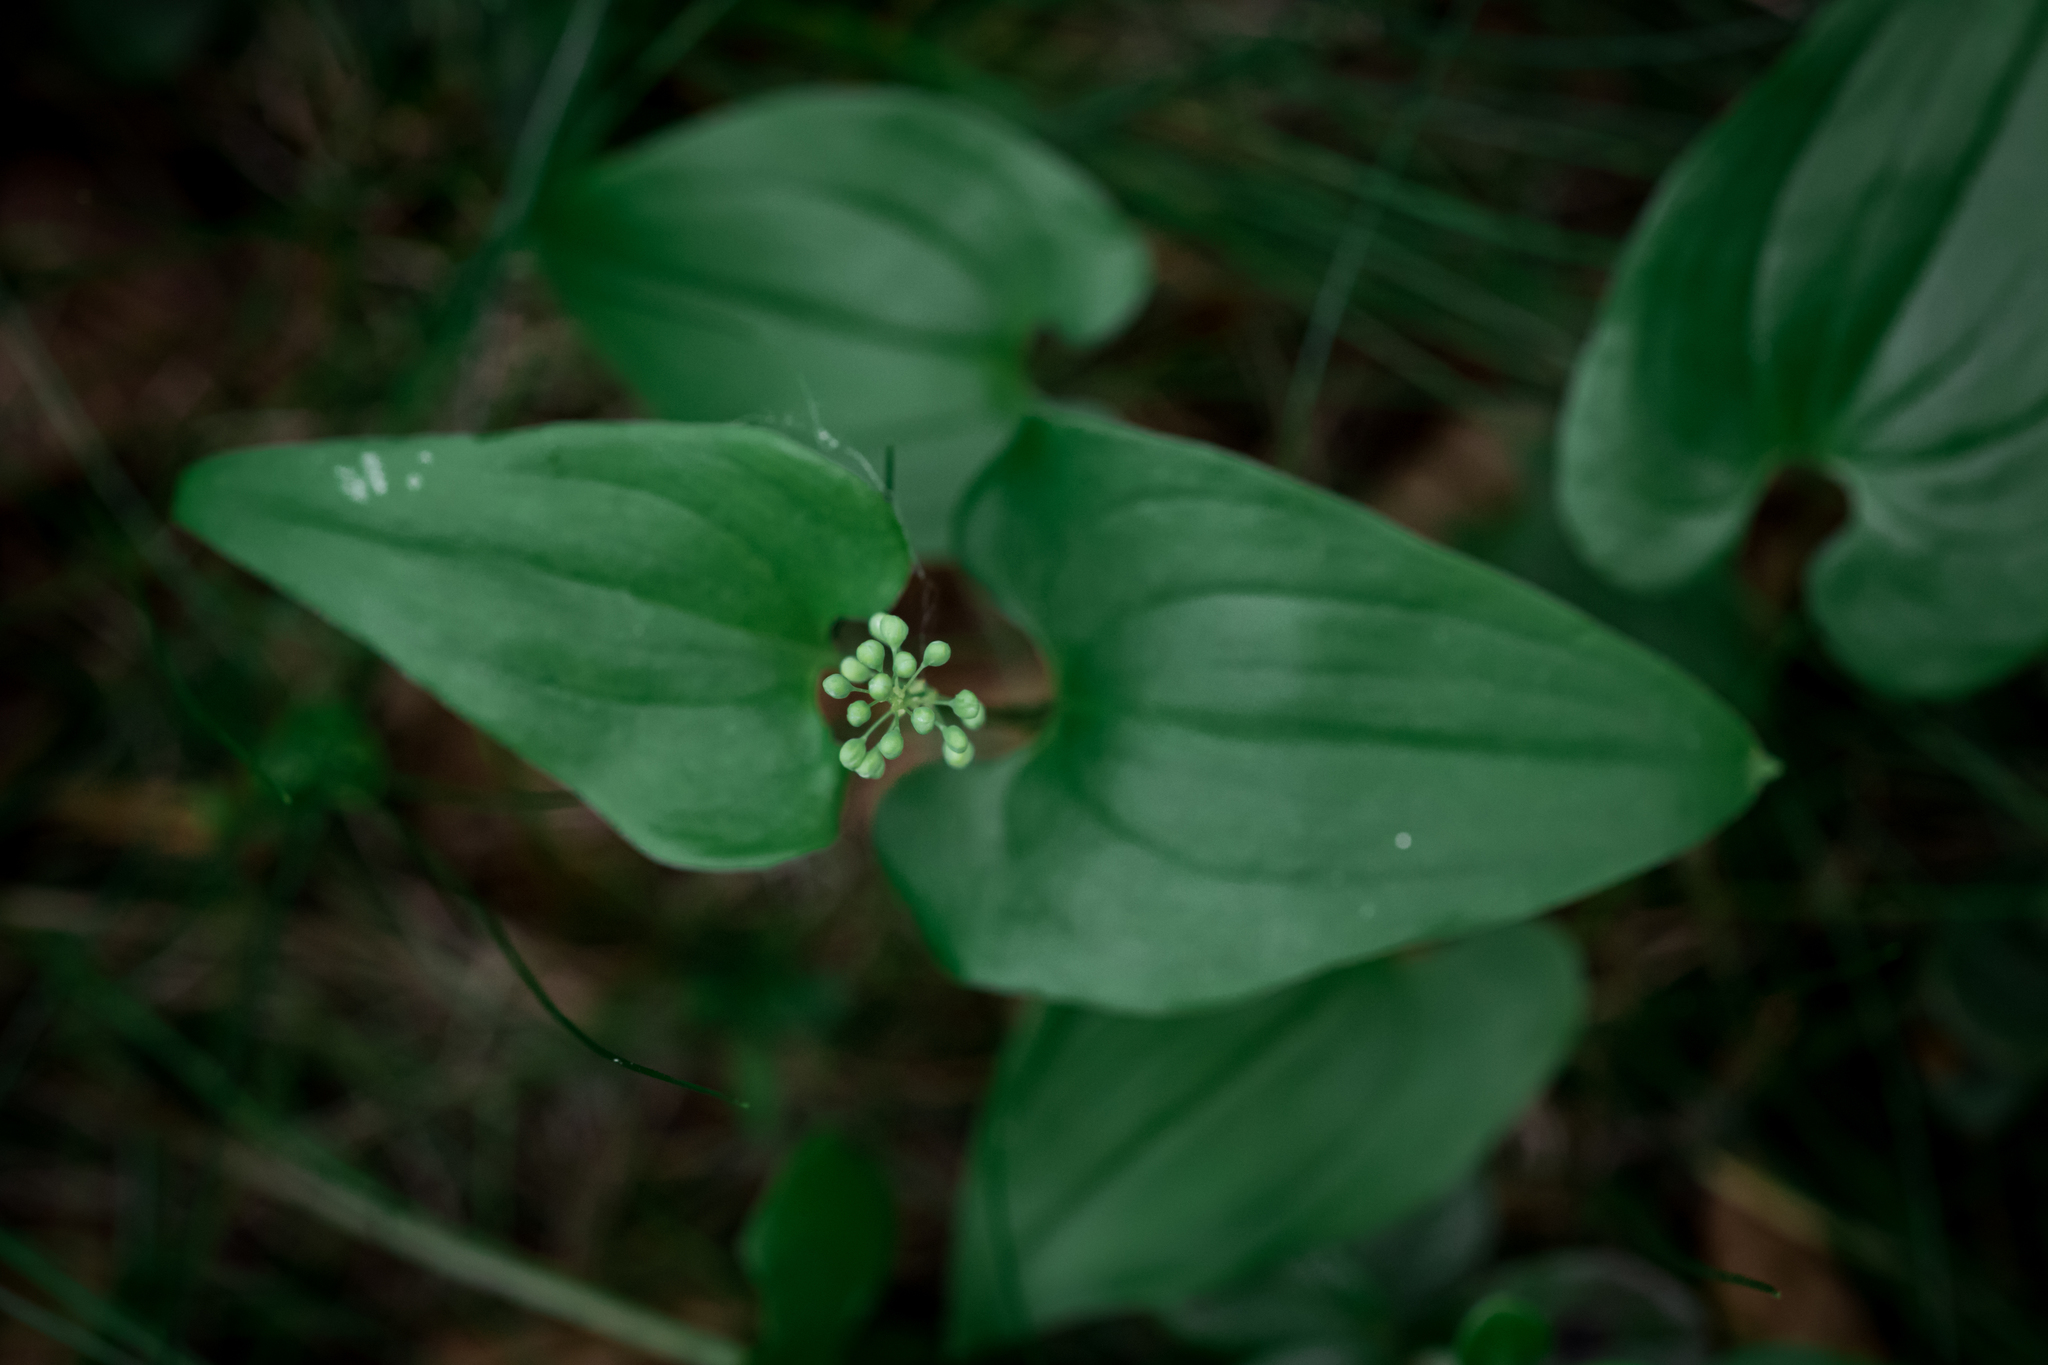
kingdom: Plantae
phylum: Tracheophyta
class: Liliopsida
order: Asparagales
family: Asparagaceae
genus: Maianthemum
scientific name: Maianthemum bifolium
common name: May lily
